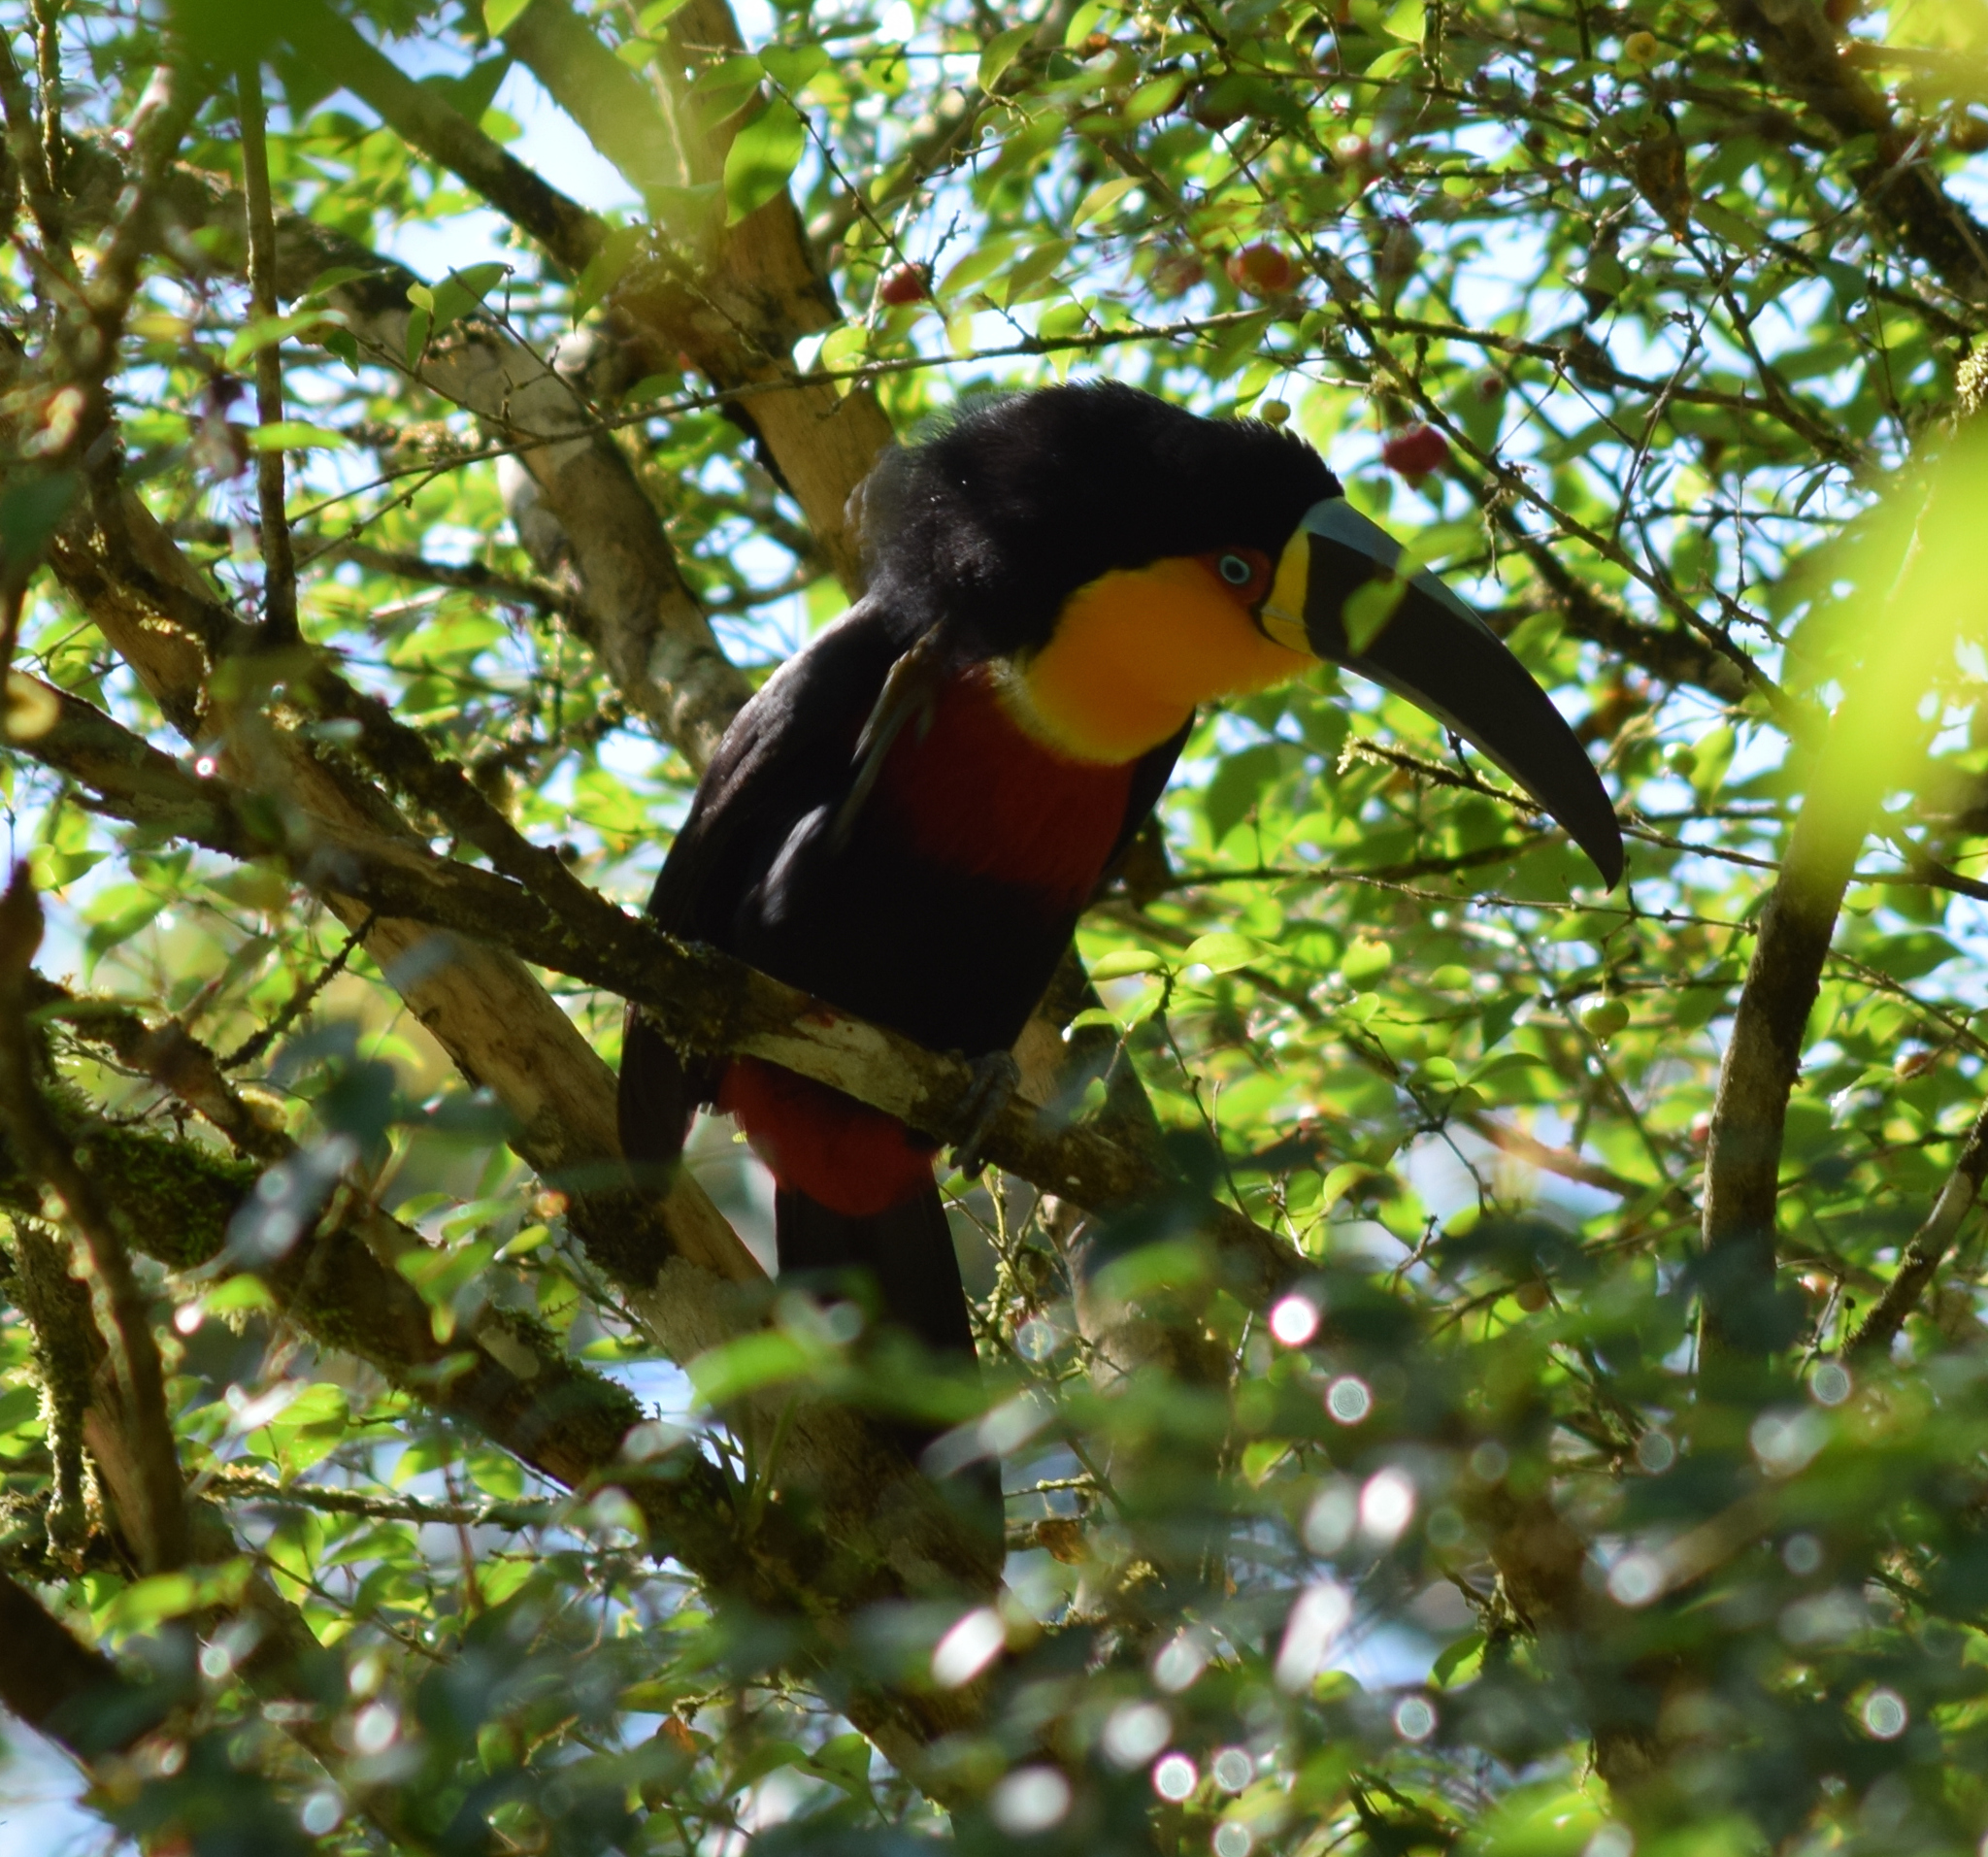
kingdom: Animalia
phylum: Chordata
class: Aves
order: Piciformes
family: Ramphastidae
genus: Ramphastos
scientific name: Ramphastos vitellinus
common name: Channel-billed toucan
